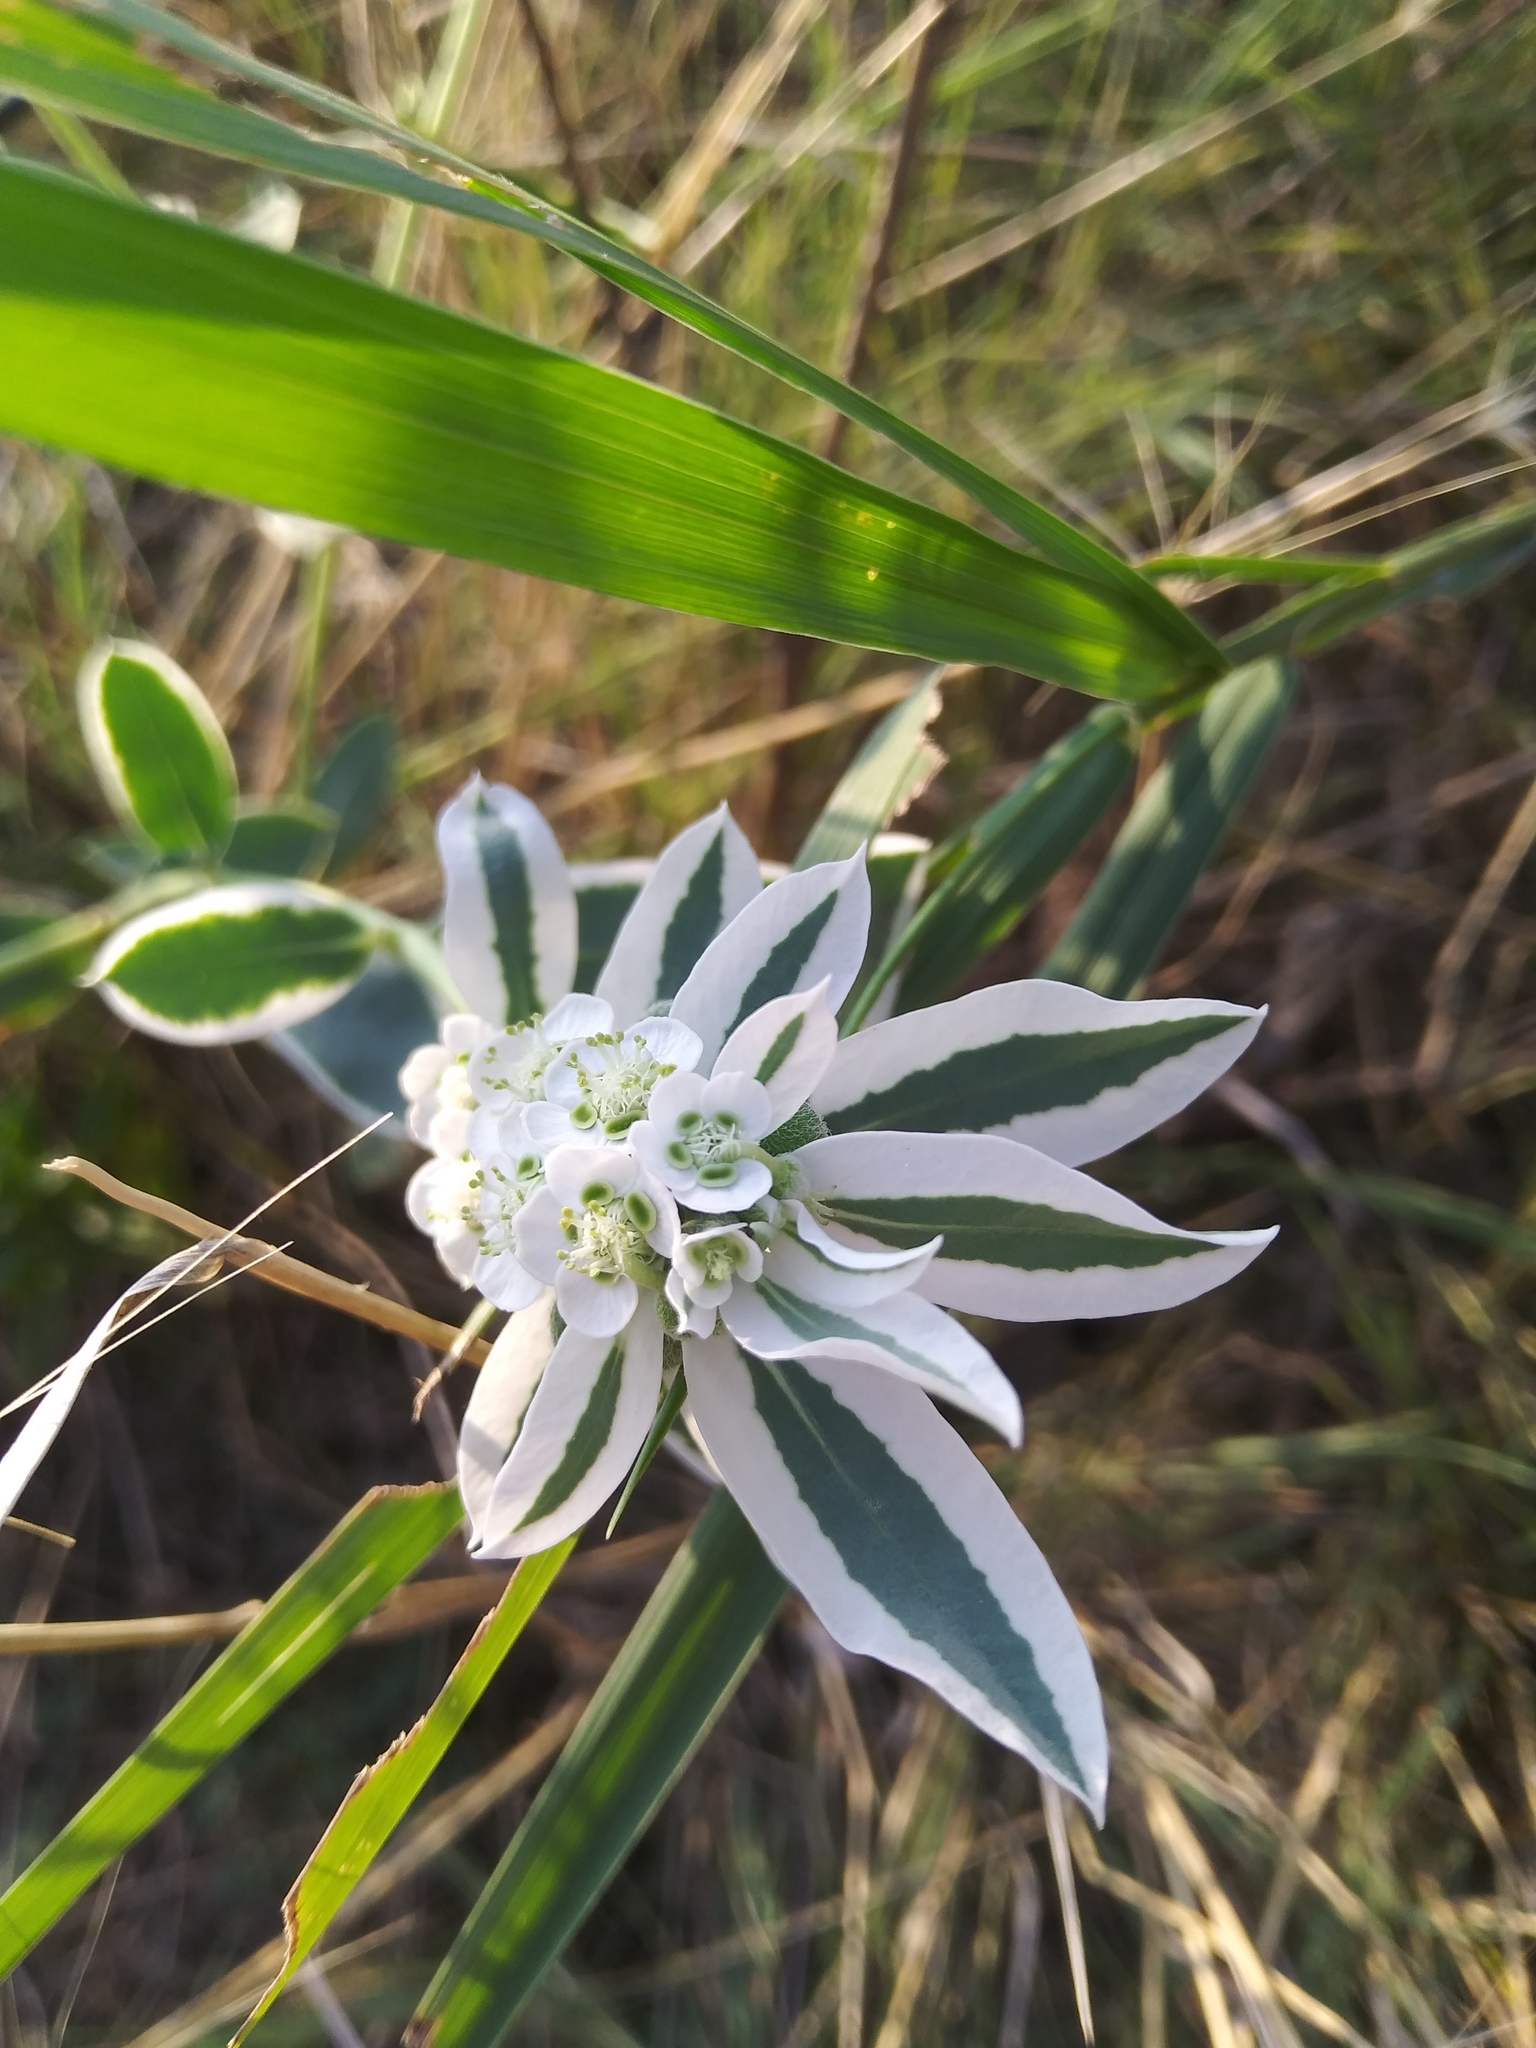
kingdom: Plantae
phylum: Tracheophyta
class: Magnoliopsida
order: Malpighiales
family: Euphorbiaceae
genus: Euphorbia
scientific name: Euphorbia marginata
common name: Ghostweed
